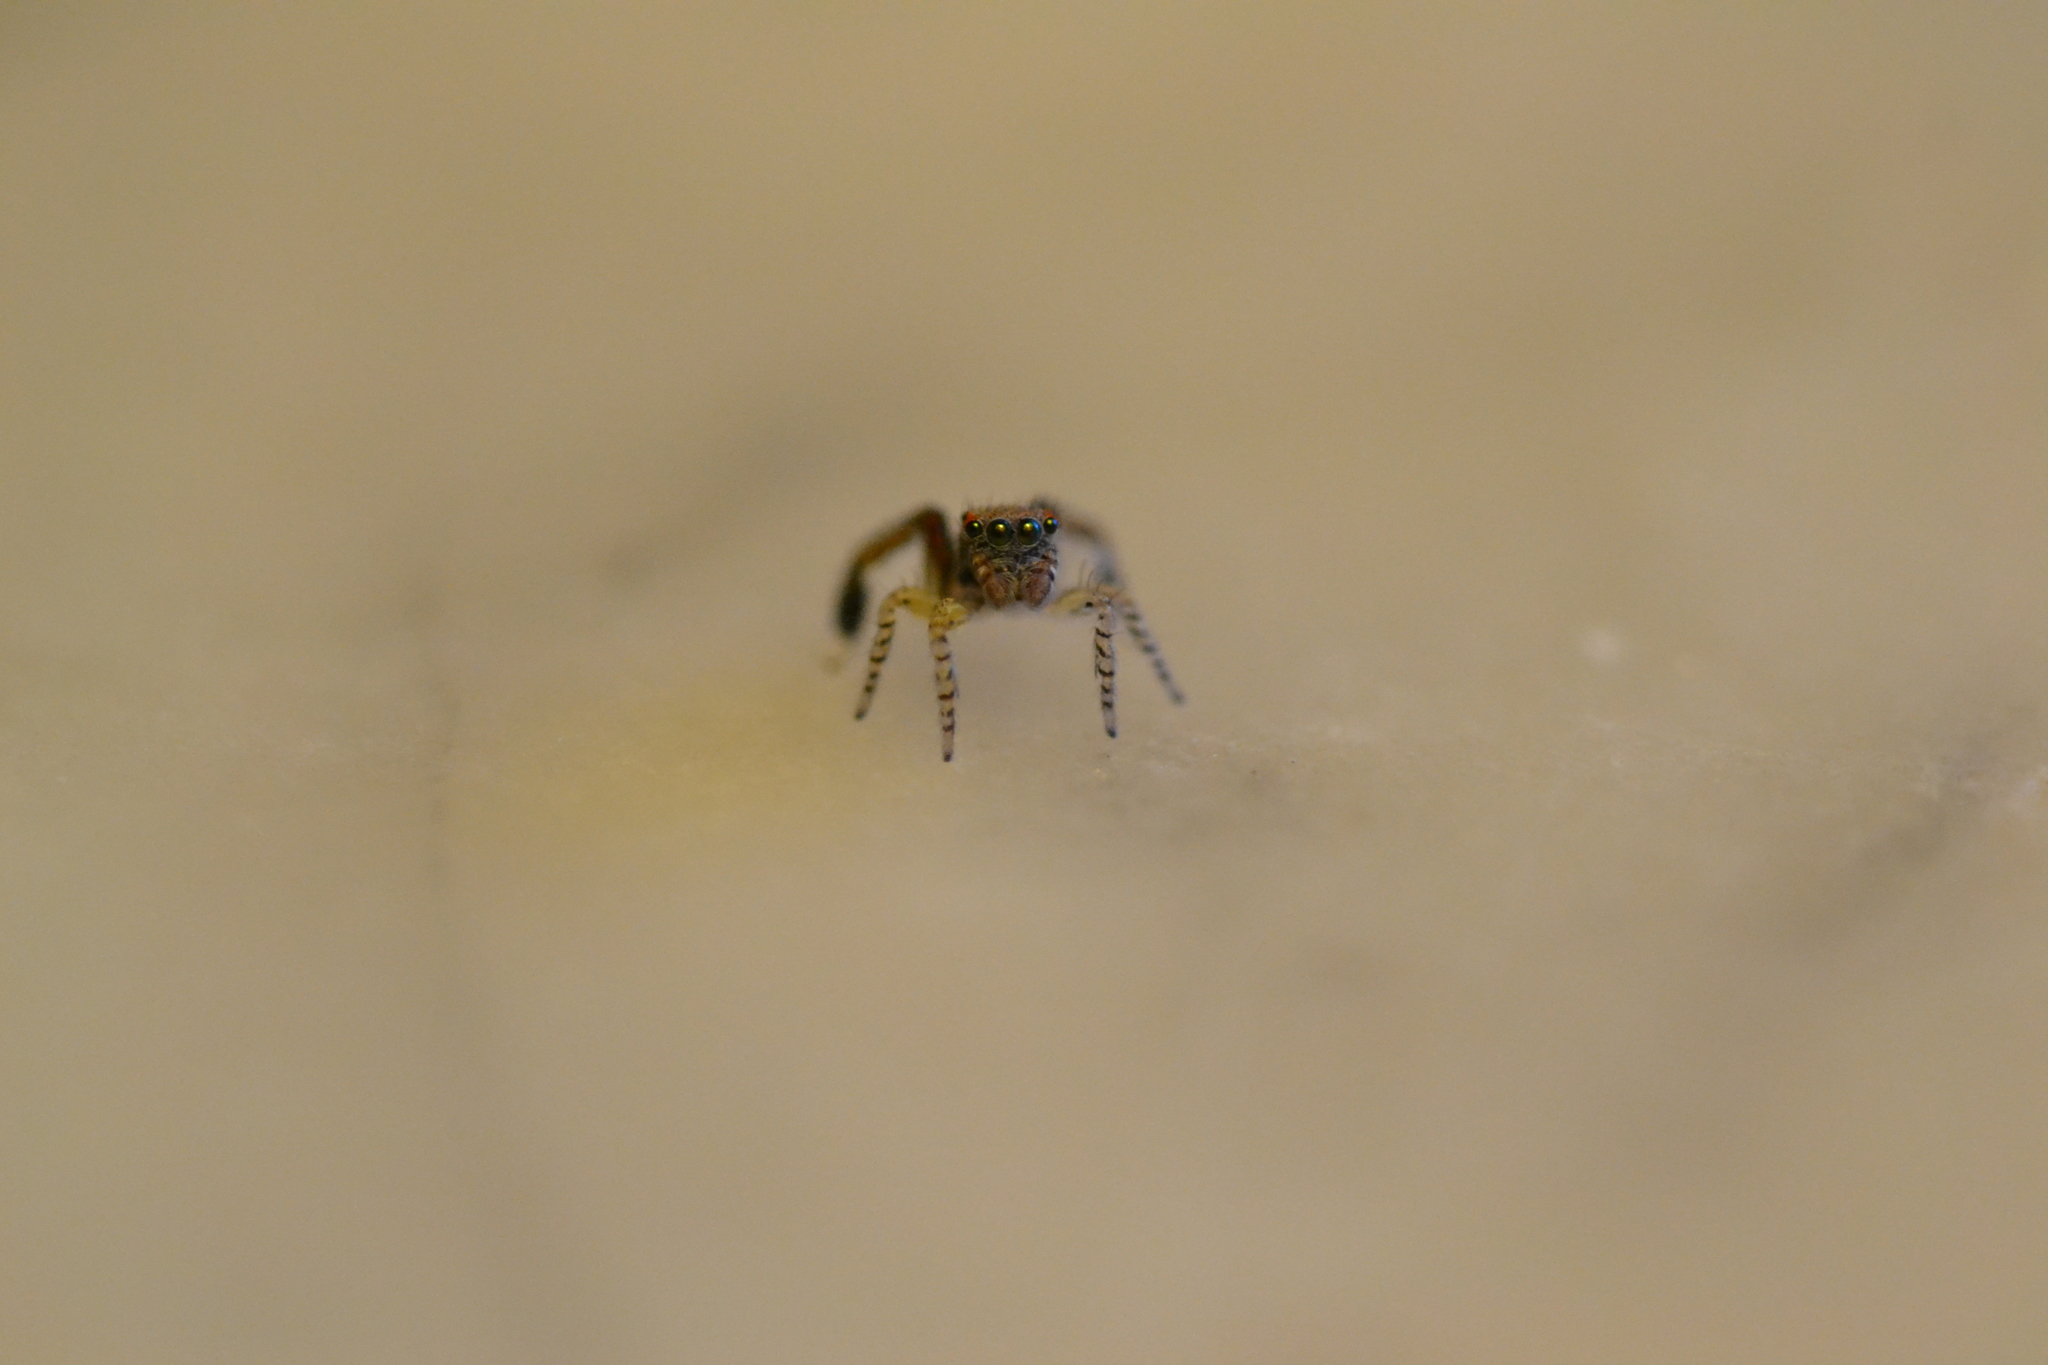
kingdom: Animalia
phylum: Arthropoda
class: Arachnida
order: Araneae
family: Salticidae
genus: Saitis
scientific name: Saitis barbipes
